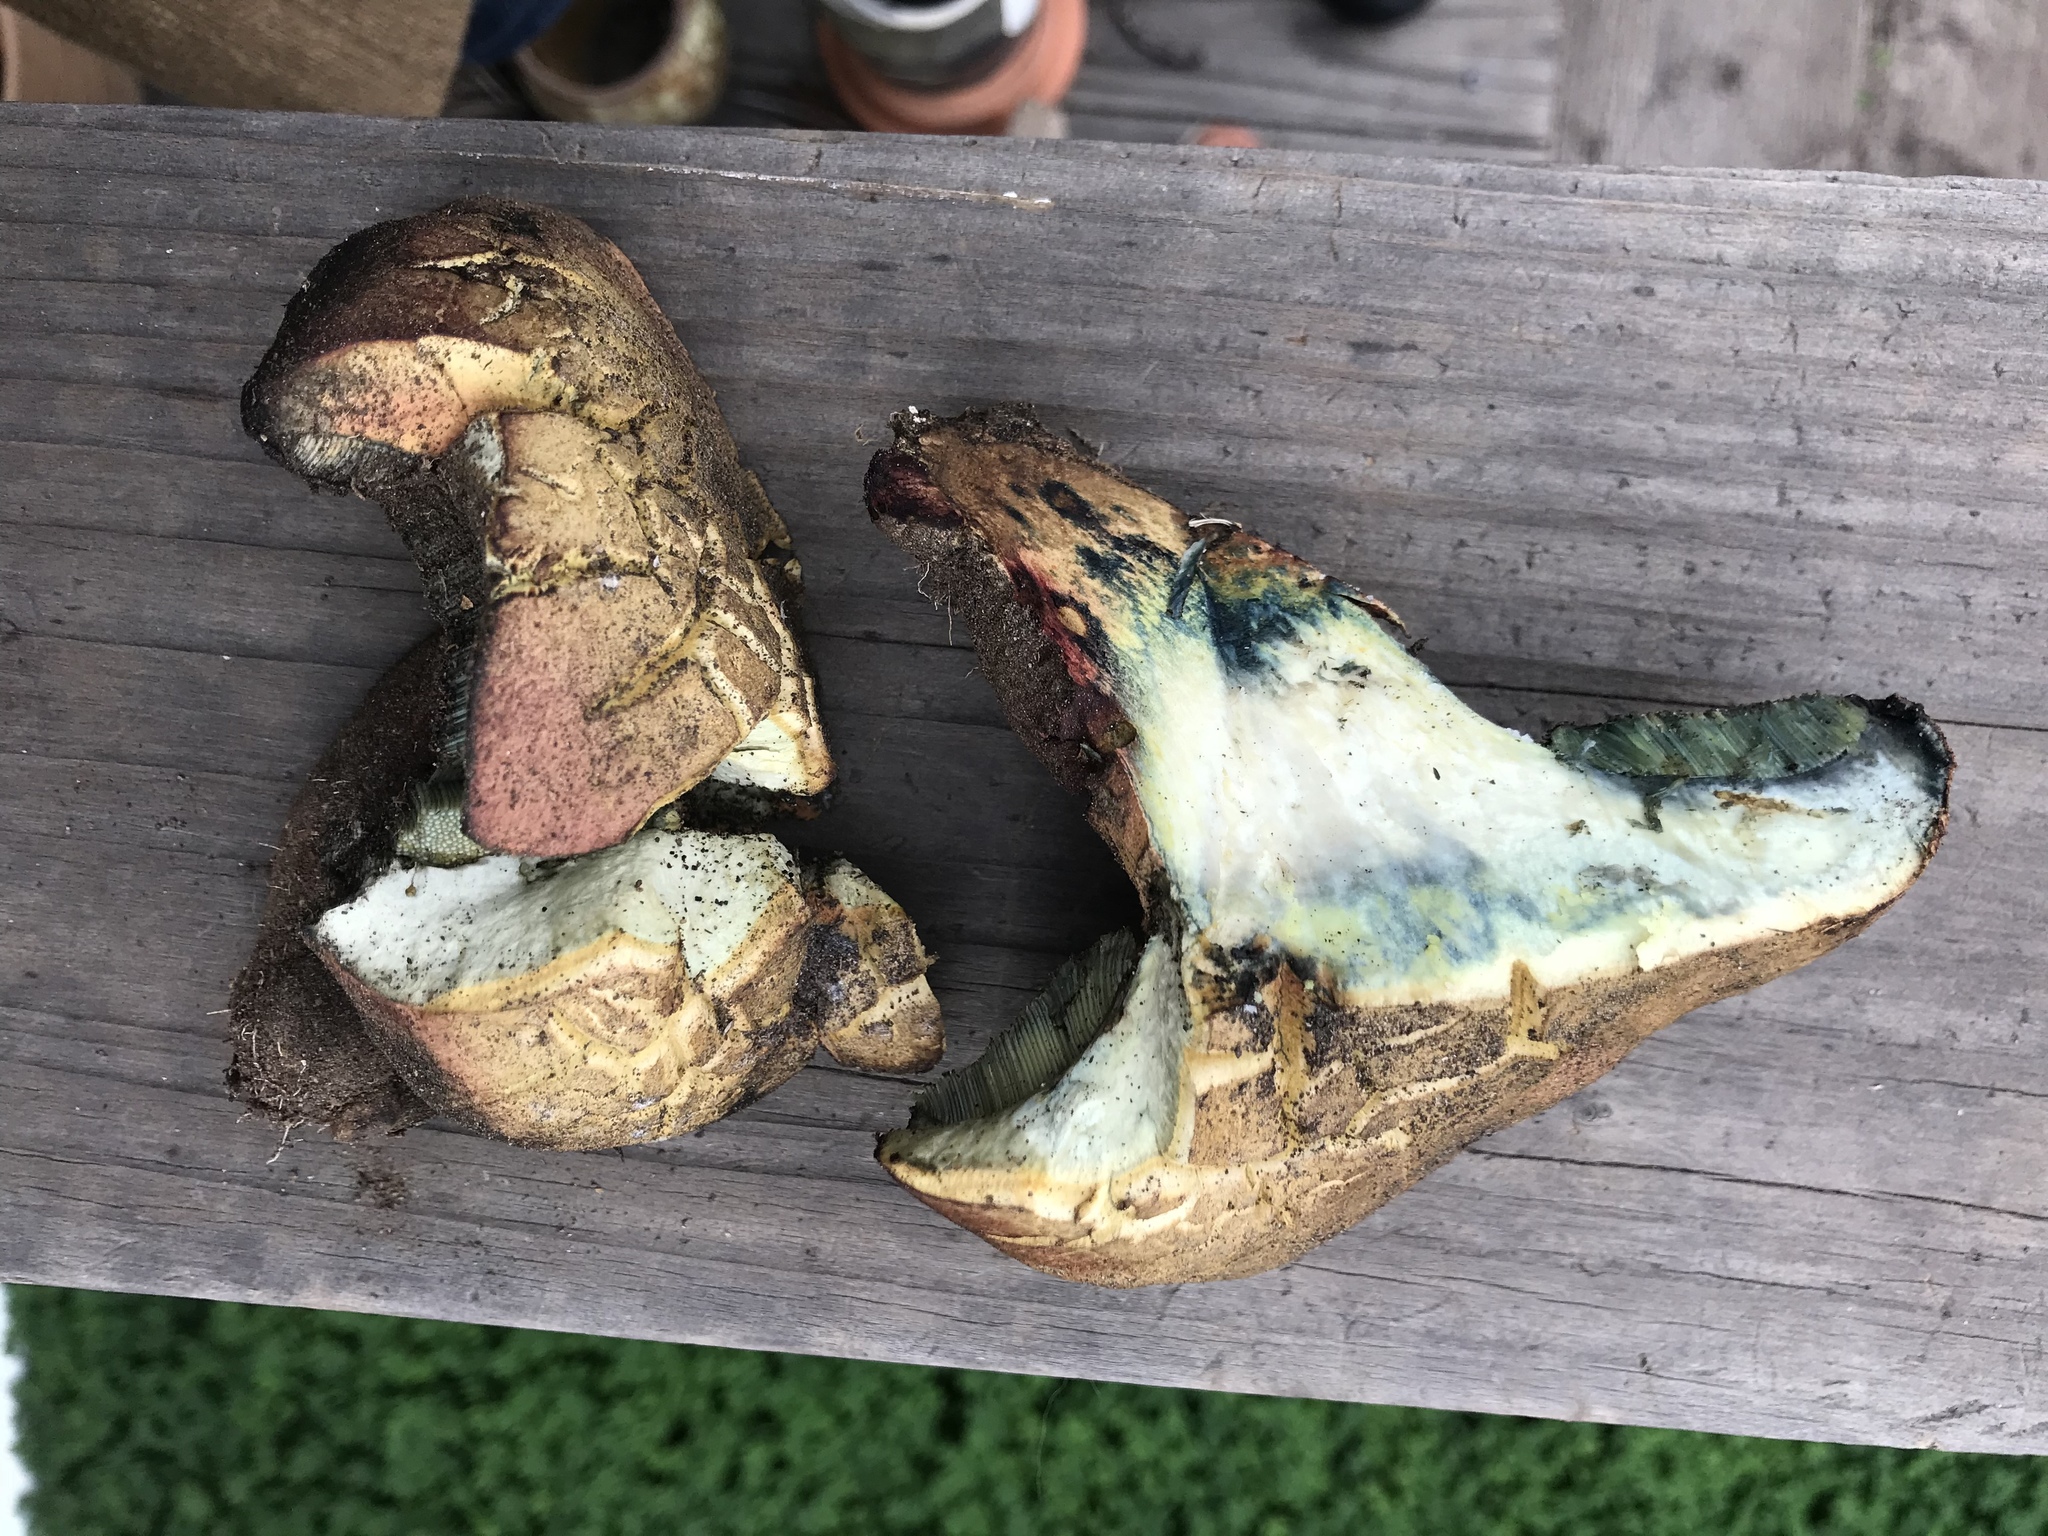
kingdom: Fungi
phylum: Basidiomycota
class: Agaricomycetes
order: Boletales
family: Boletaceae
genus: Suillellus
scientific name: Suillellus amygdalinus
